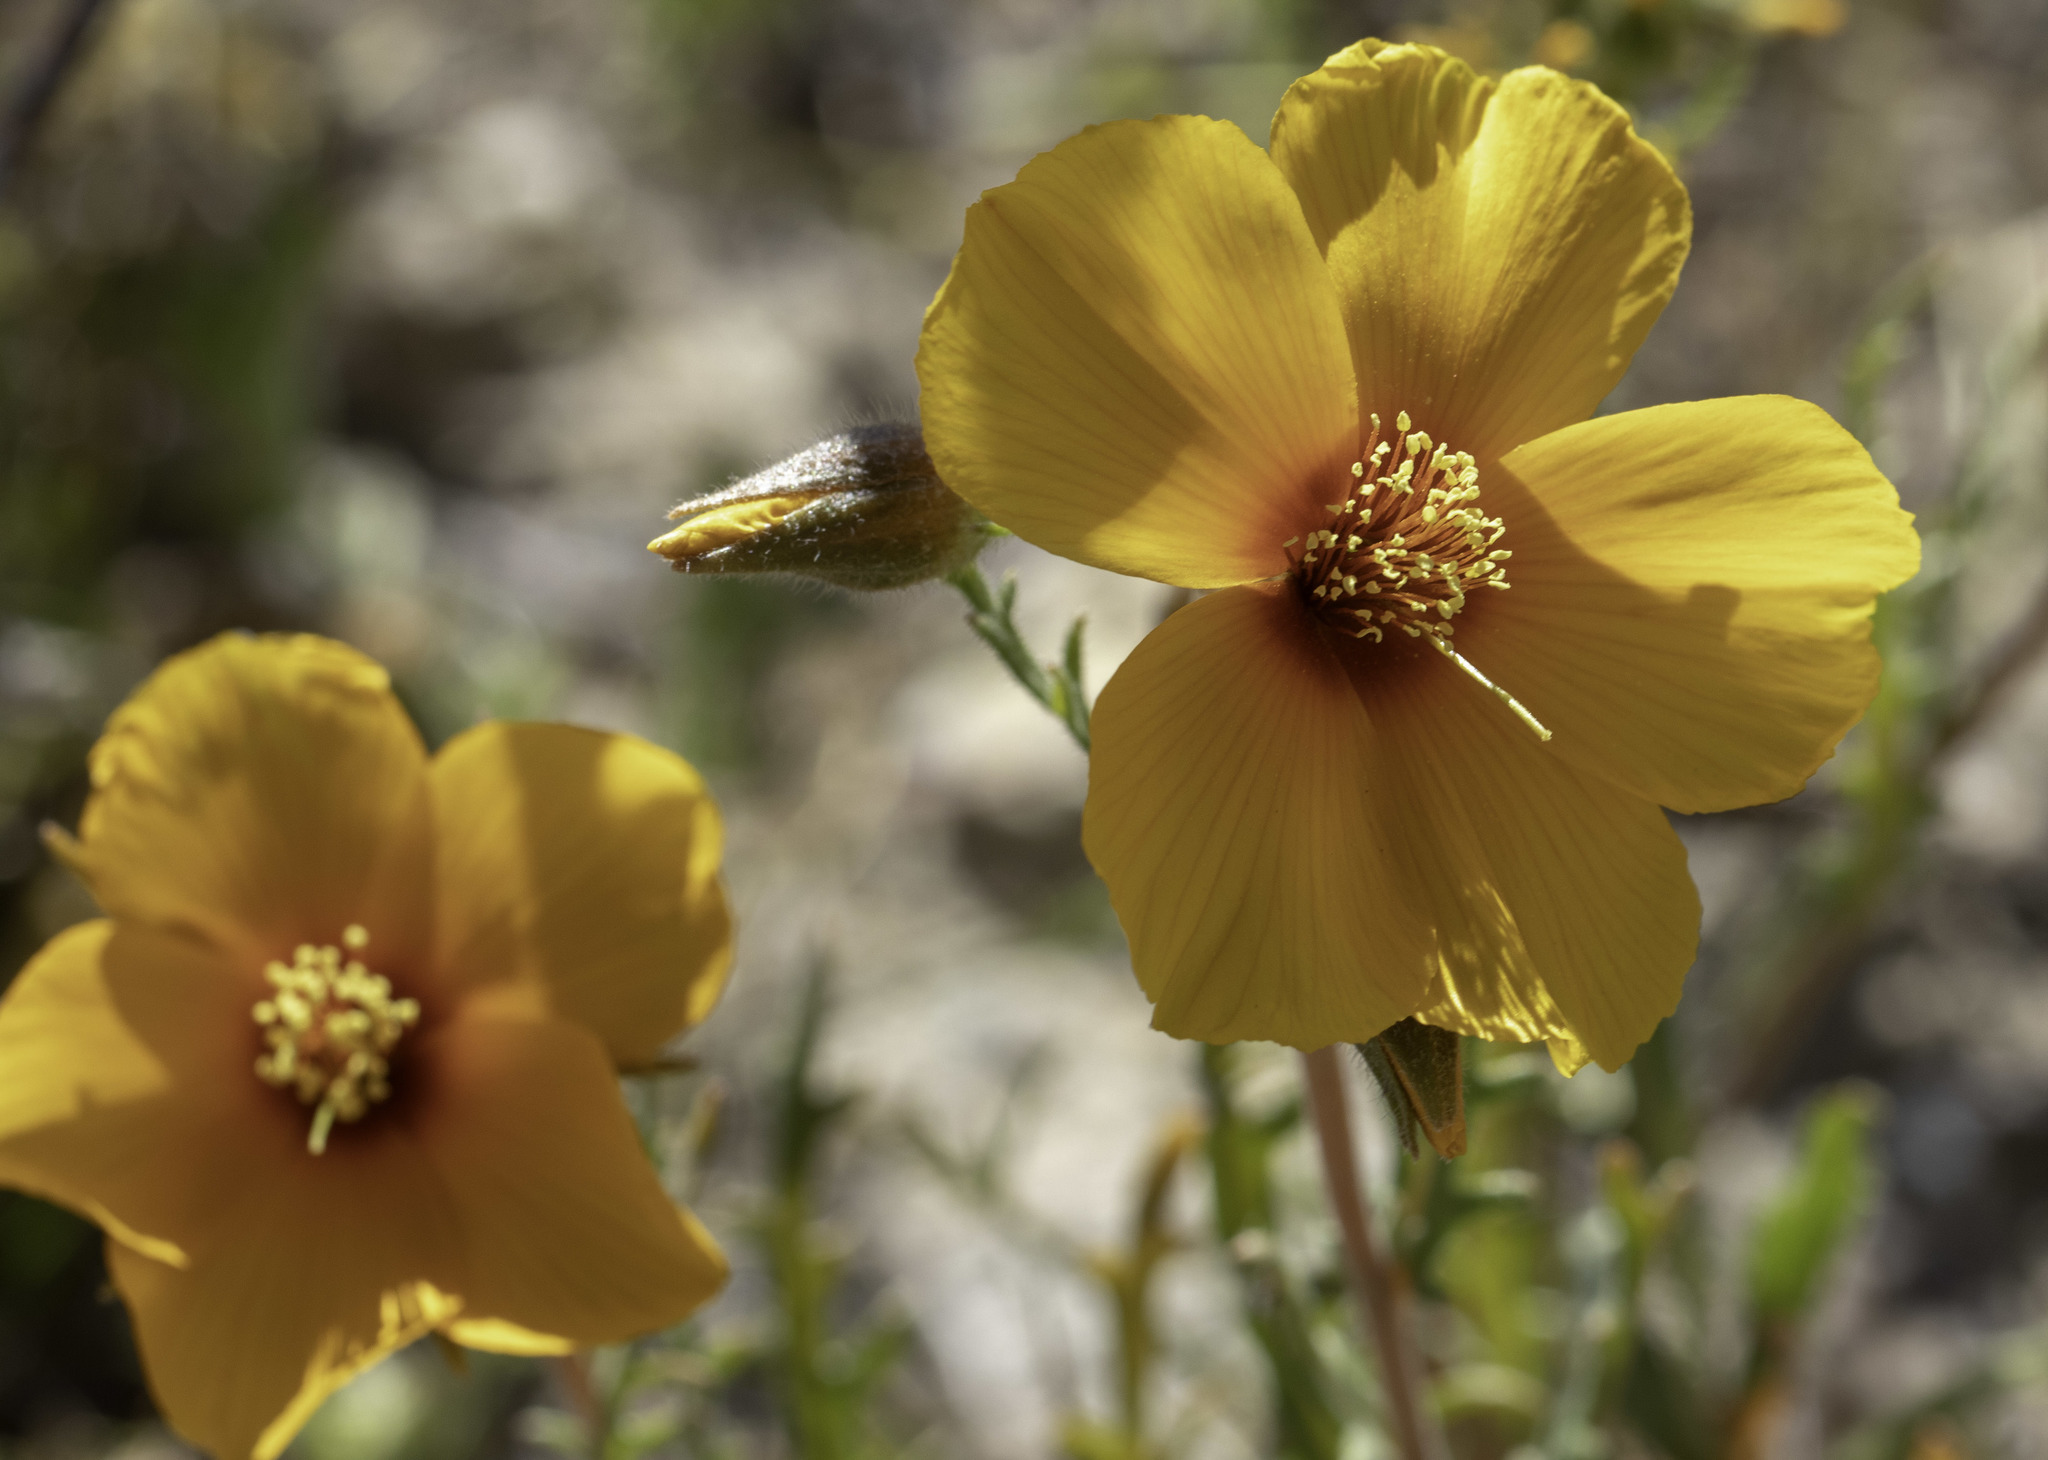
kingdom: Plantae
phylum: Tracheophyta
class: Magnoliopsida
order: Cornales
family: Loasaceae
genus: Mentzelia
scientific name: Mentzelia pectinata
